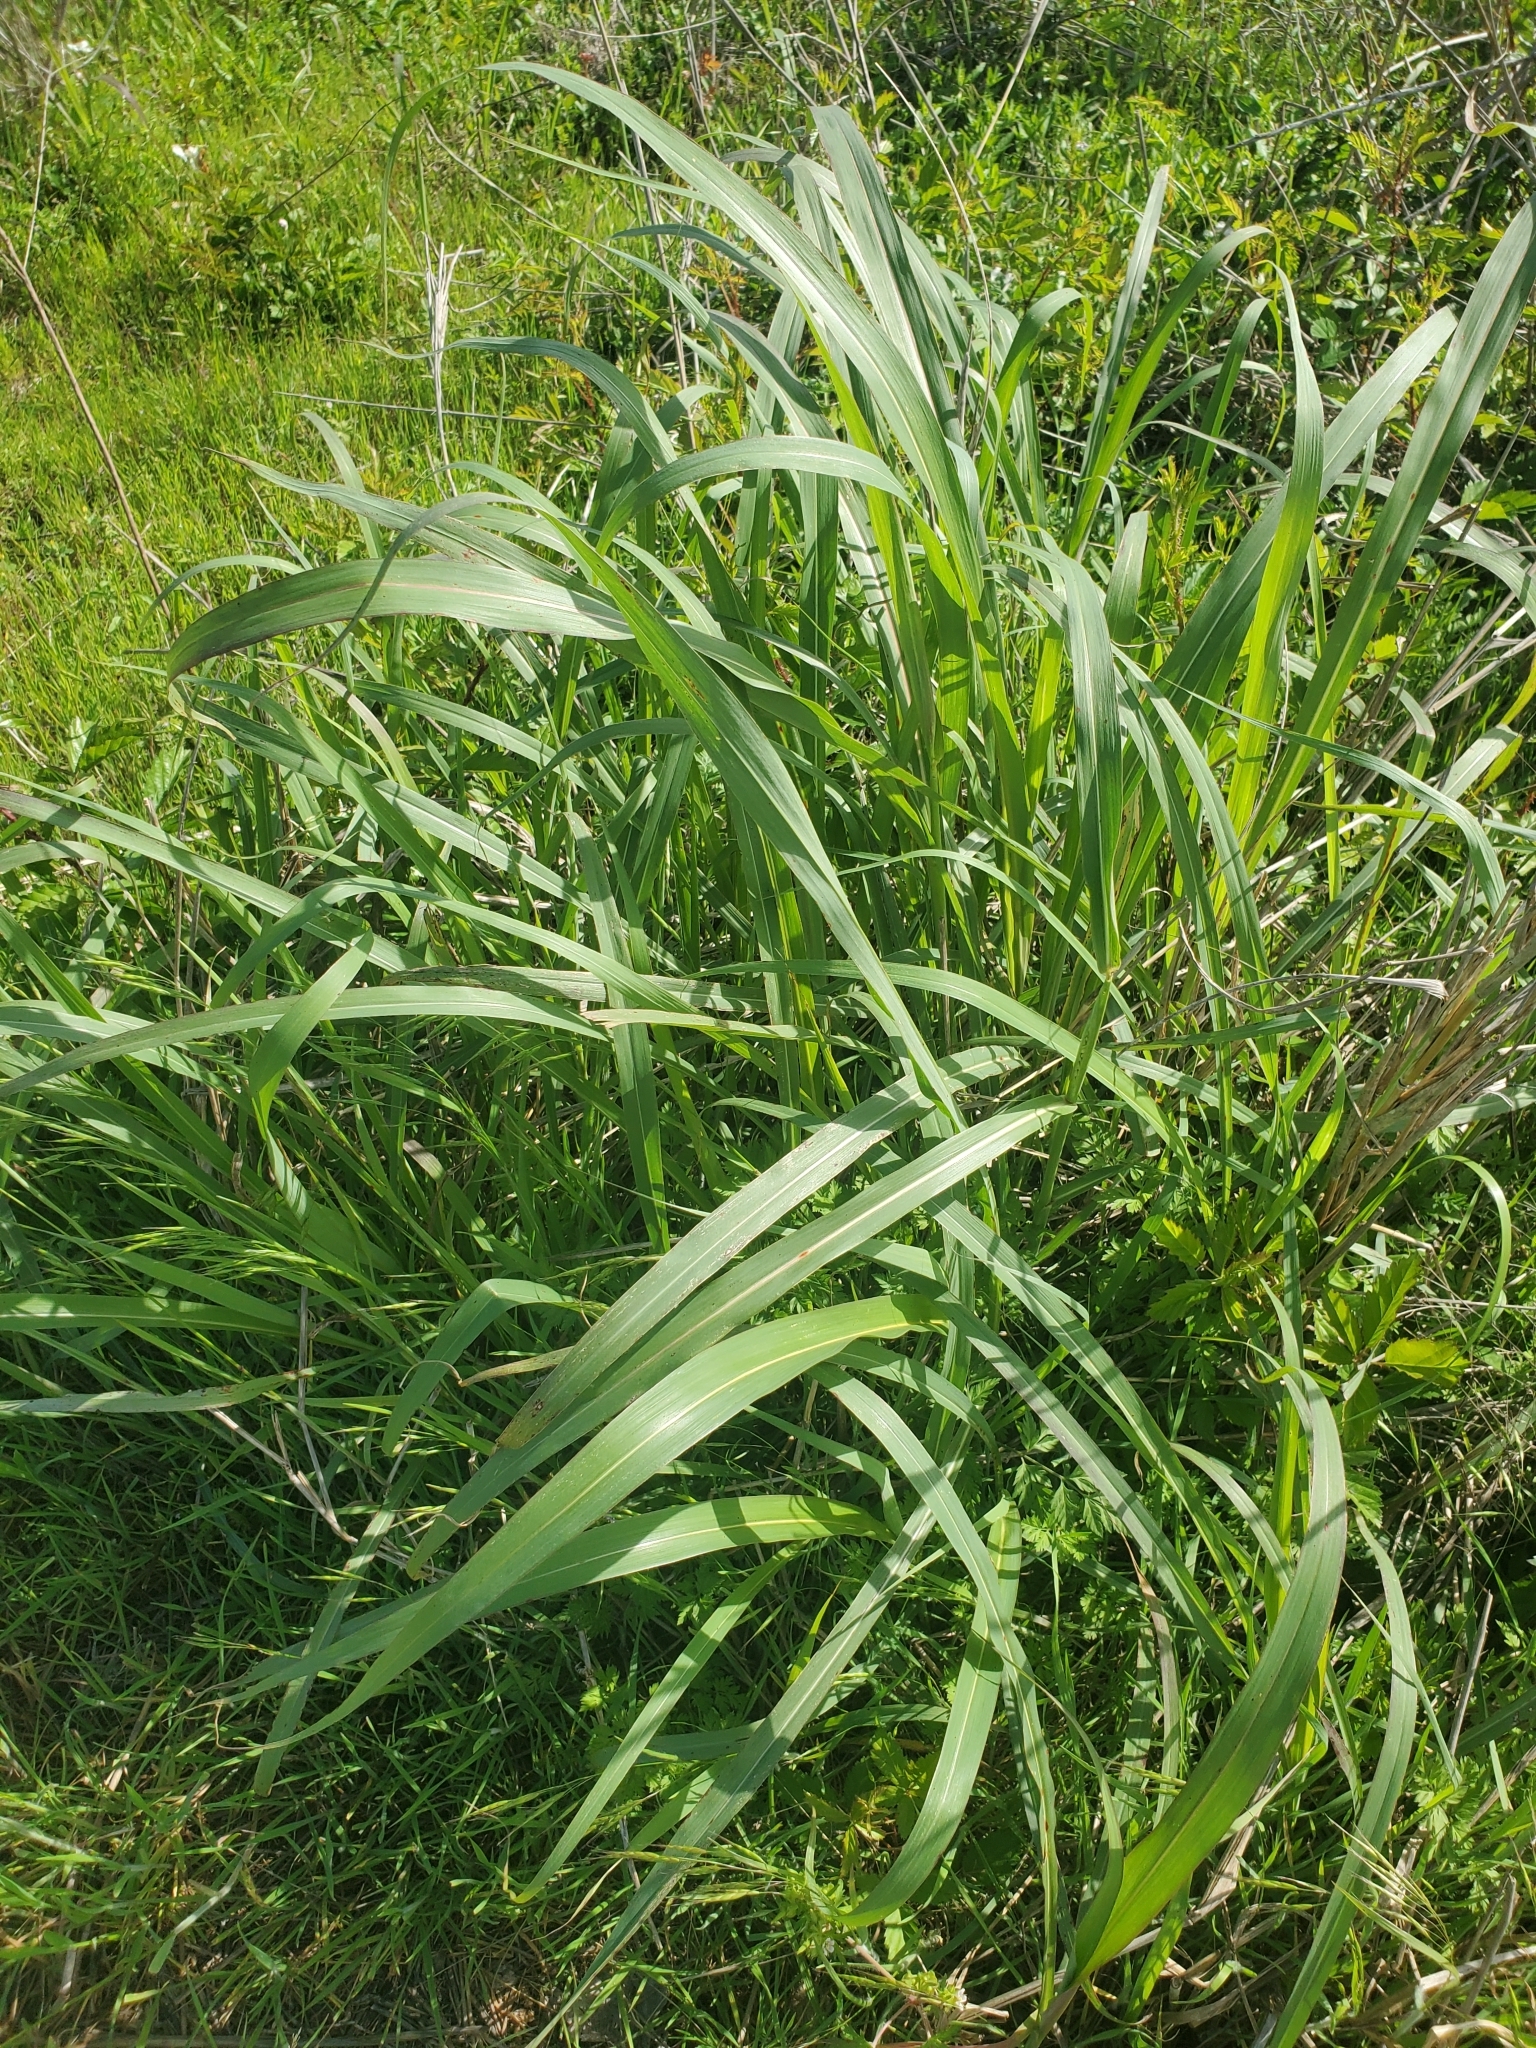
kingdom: Plantae
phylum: Tracheophyta
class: Liliopsida
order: Poales
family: Poaceae
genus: Sorghum
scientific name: Sorghum halepense
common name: Johnson-grass
